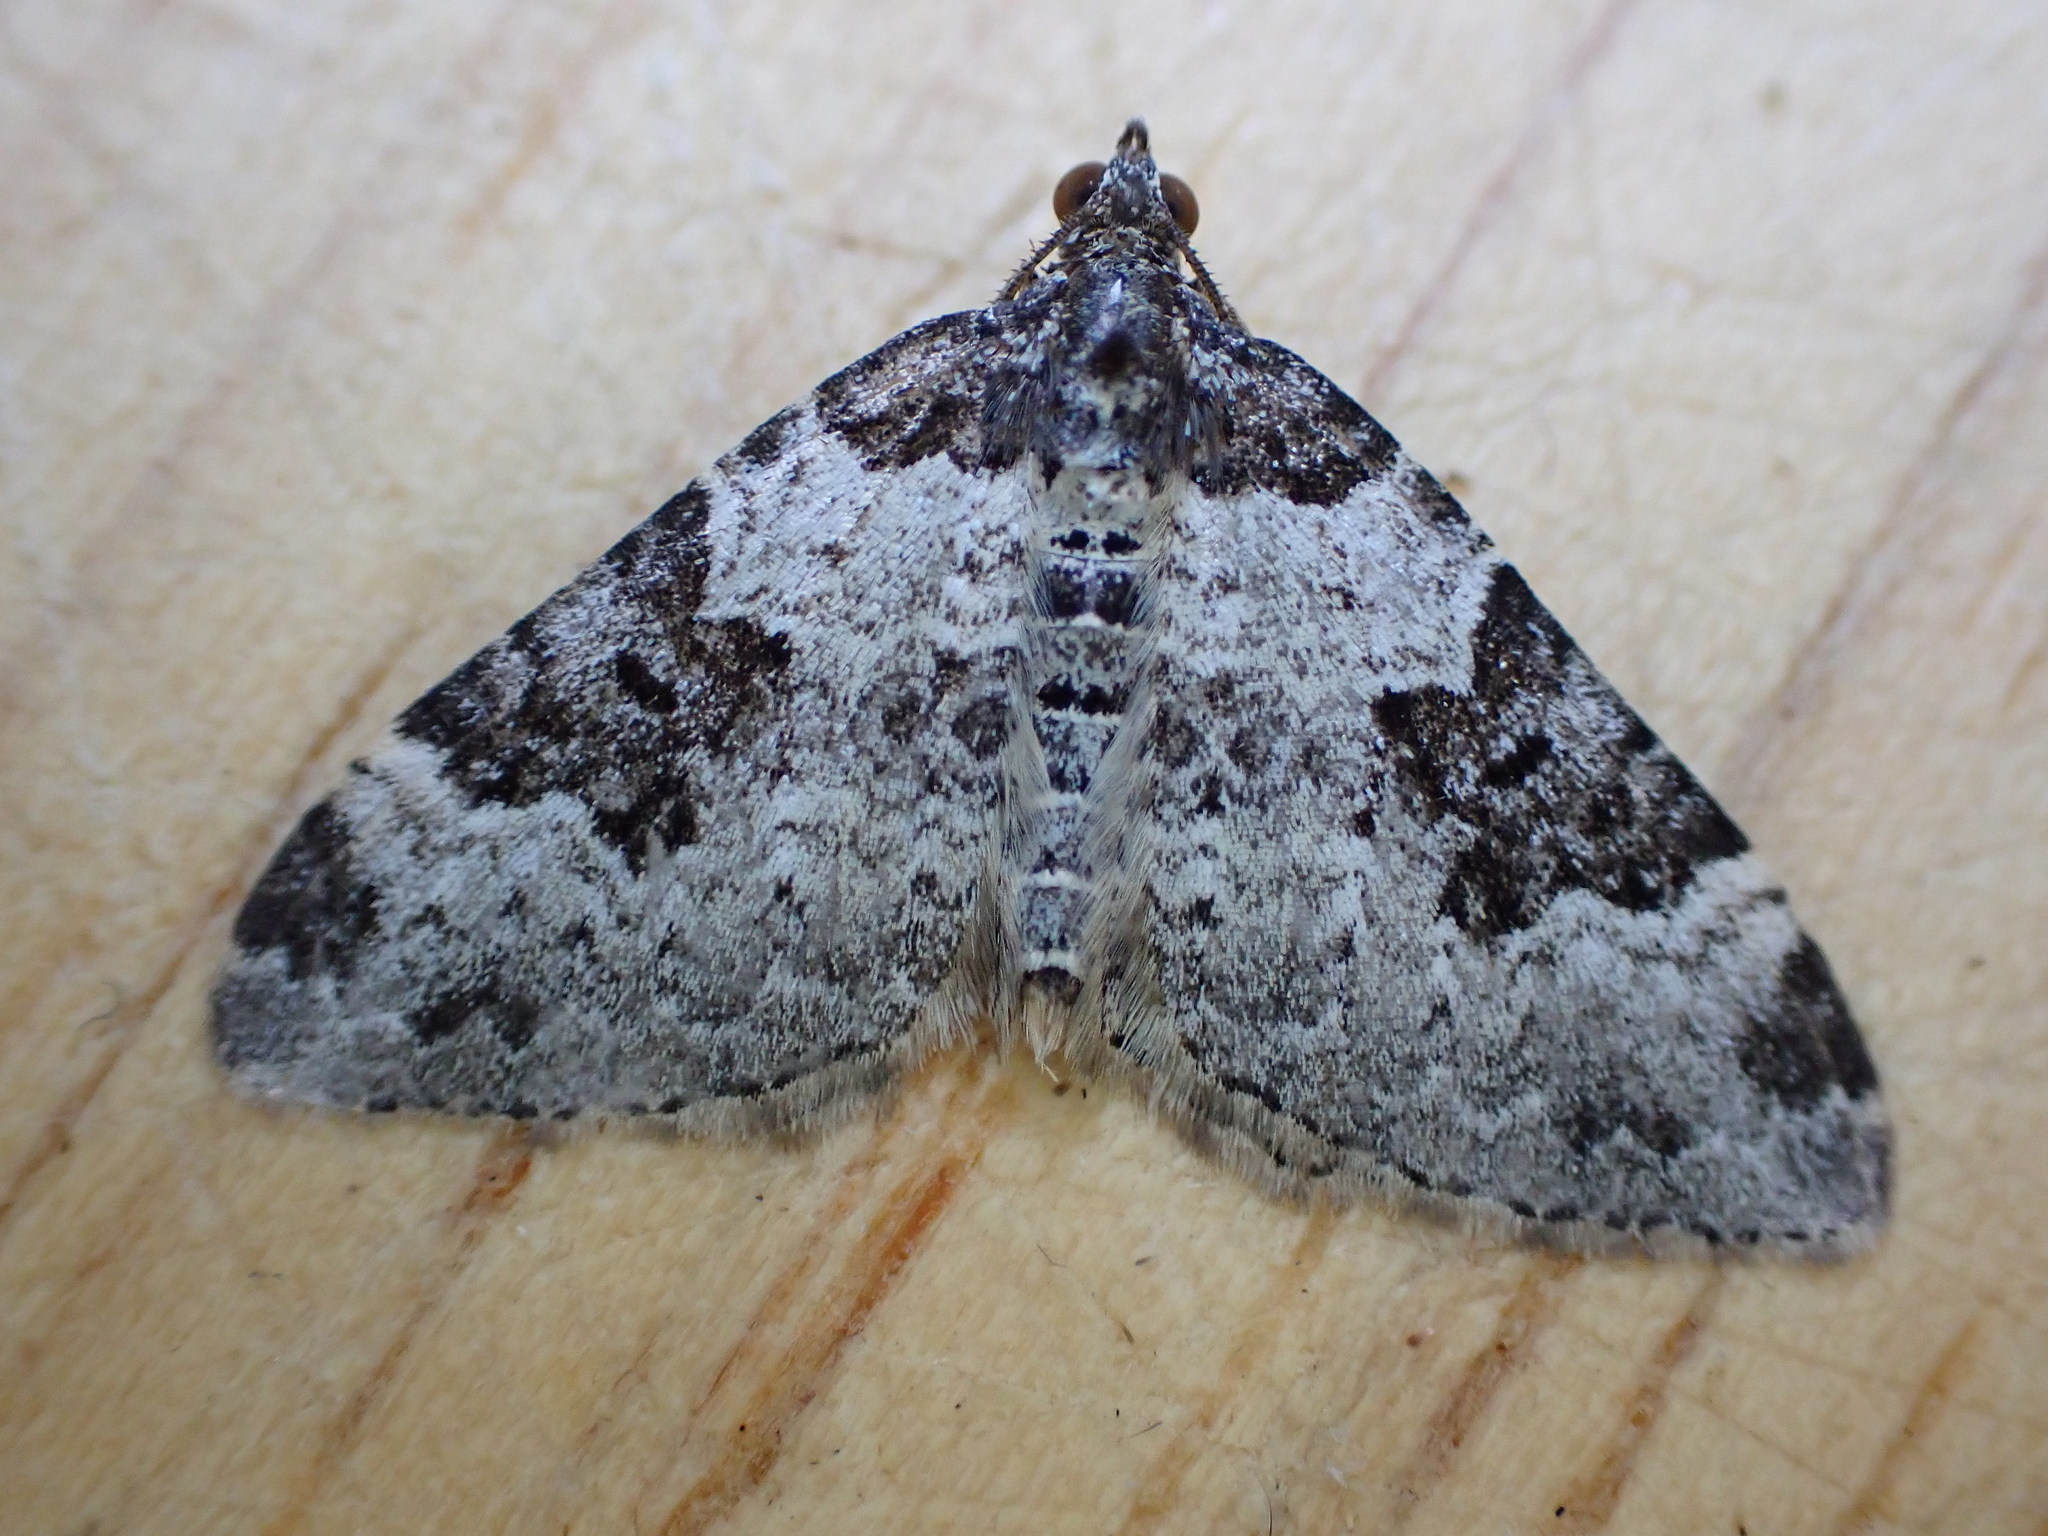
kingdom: Animalia
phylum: Arthropoda
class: Insecta
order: Lepidoptera
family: Geometridae
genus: Xanthorhoe
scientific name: Xanthorhoe fluctuata
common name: Garden carpet
